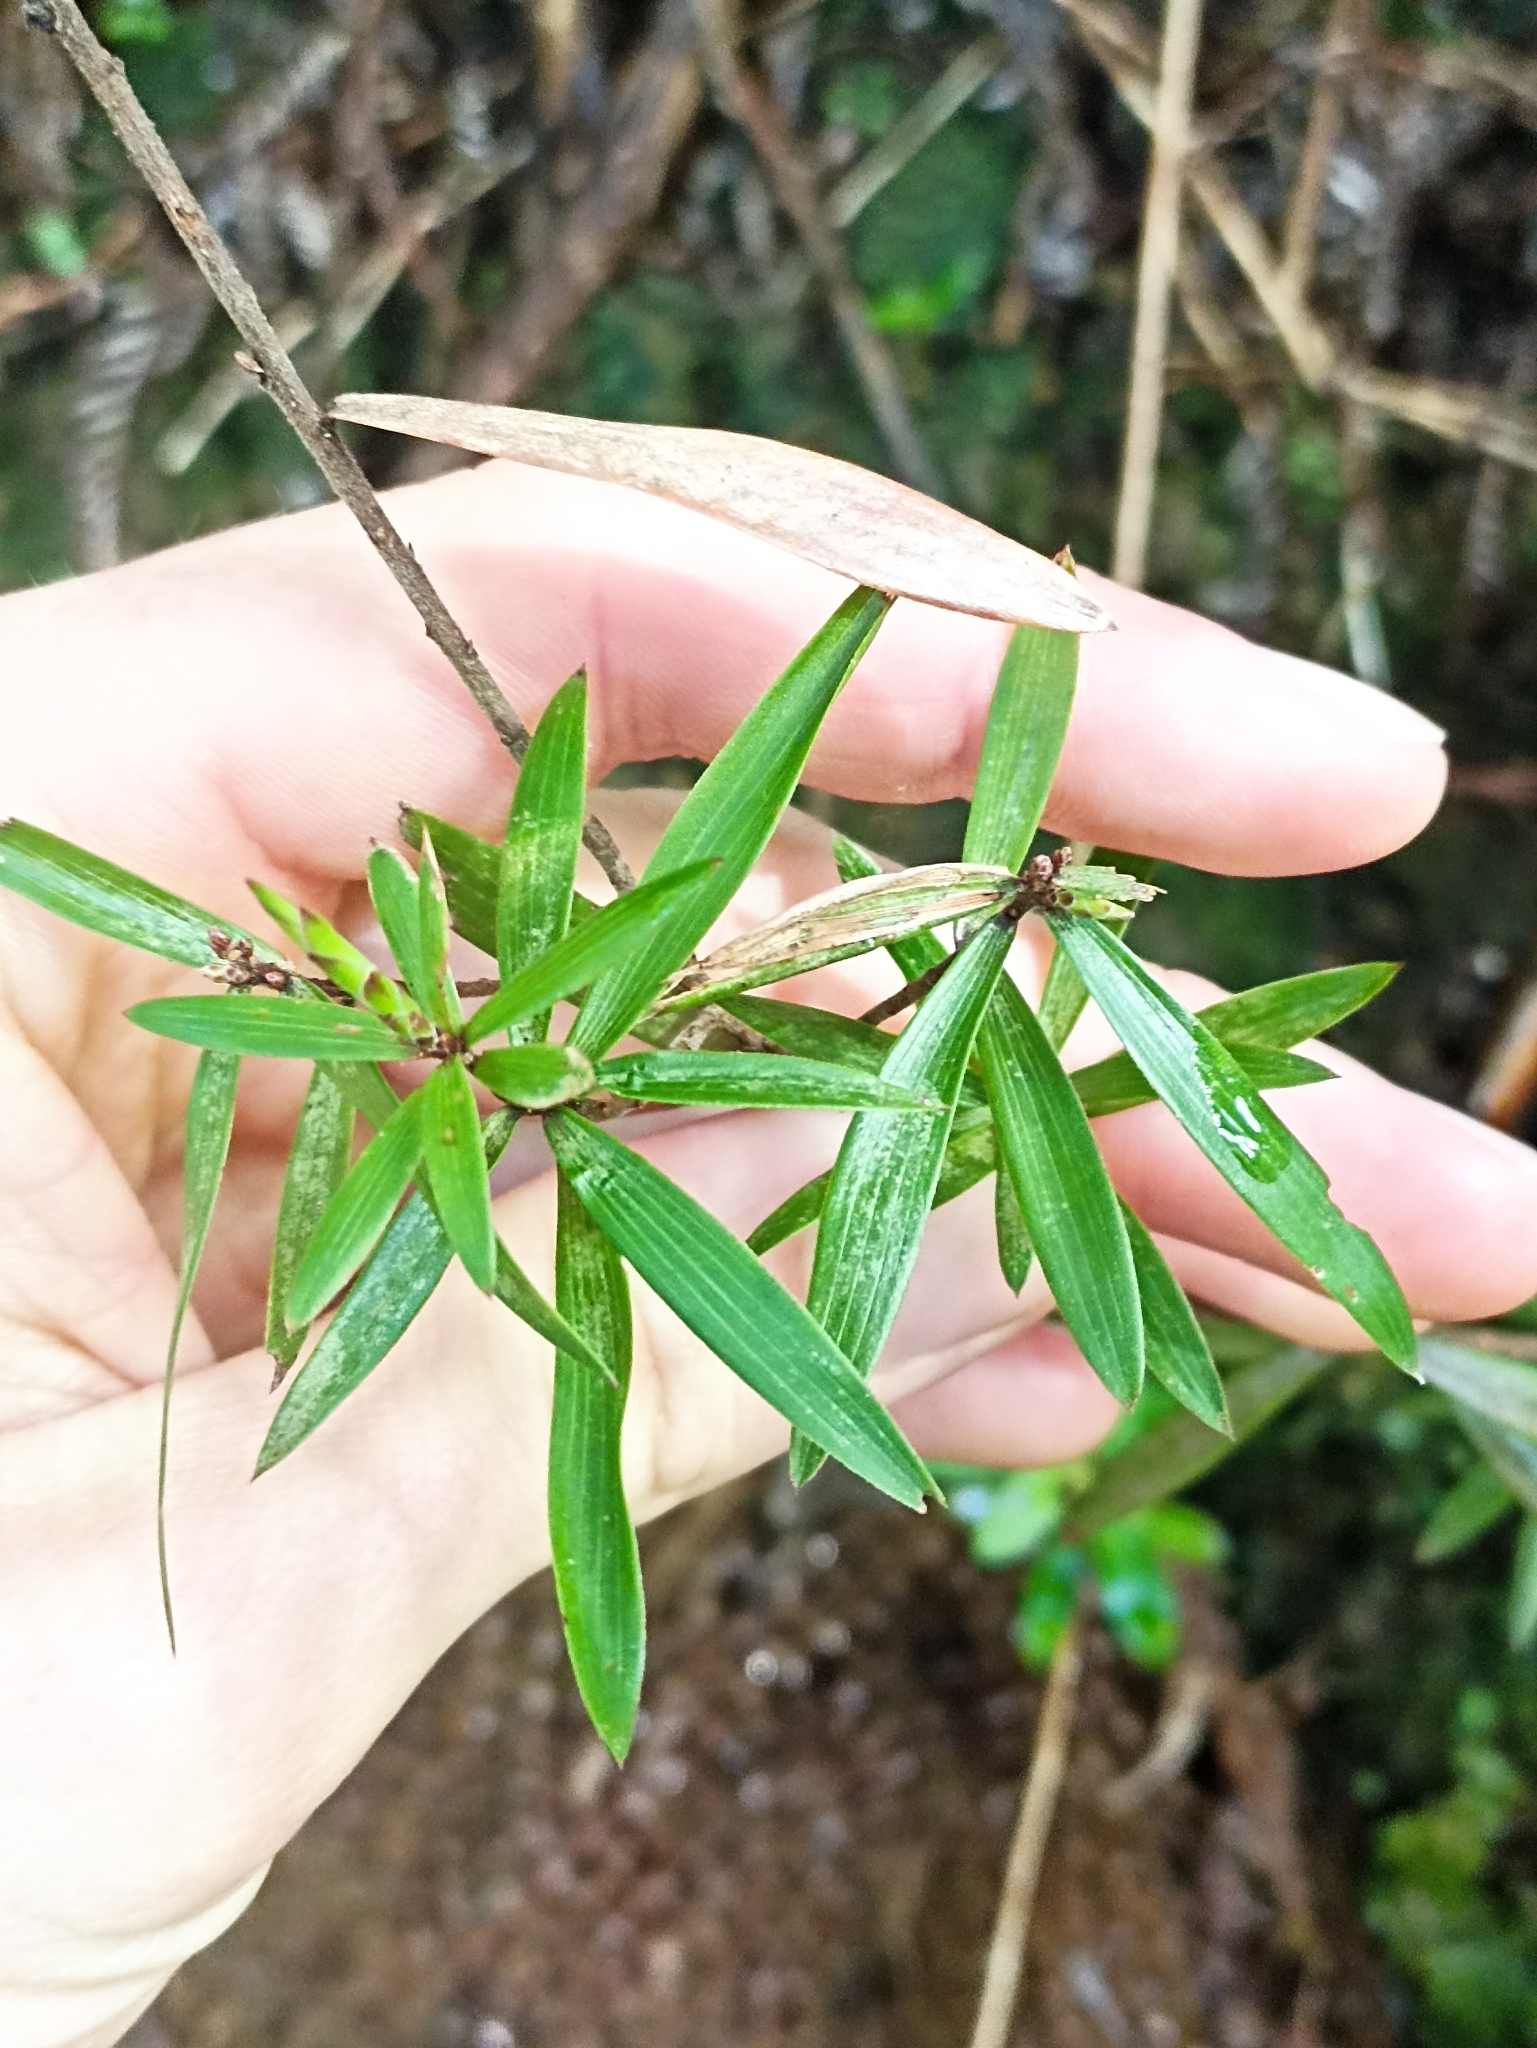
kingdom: Plantae
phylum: Tracheophyta
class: Magnoliopsida
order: Ericales
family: Ericaceae
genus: Leucopogon
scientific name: Leucopogon fasciculatus
